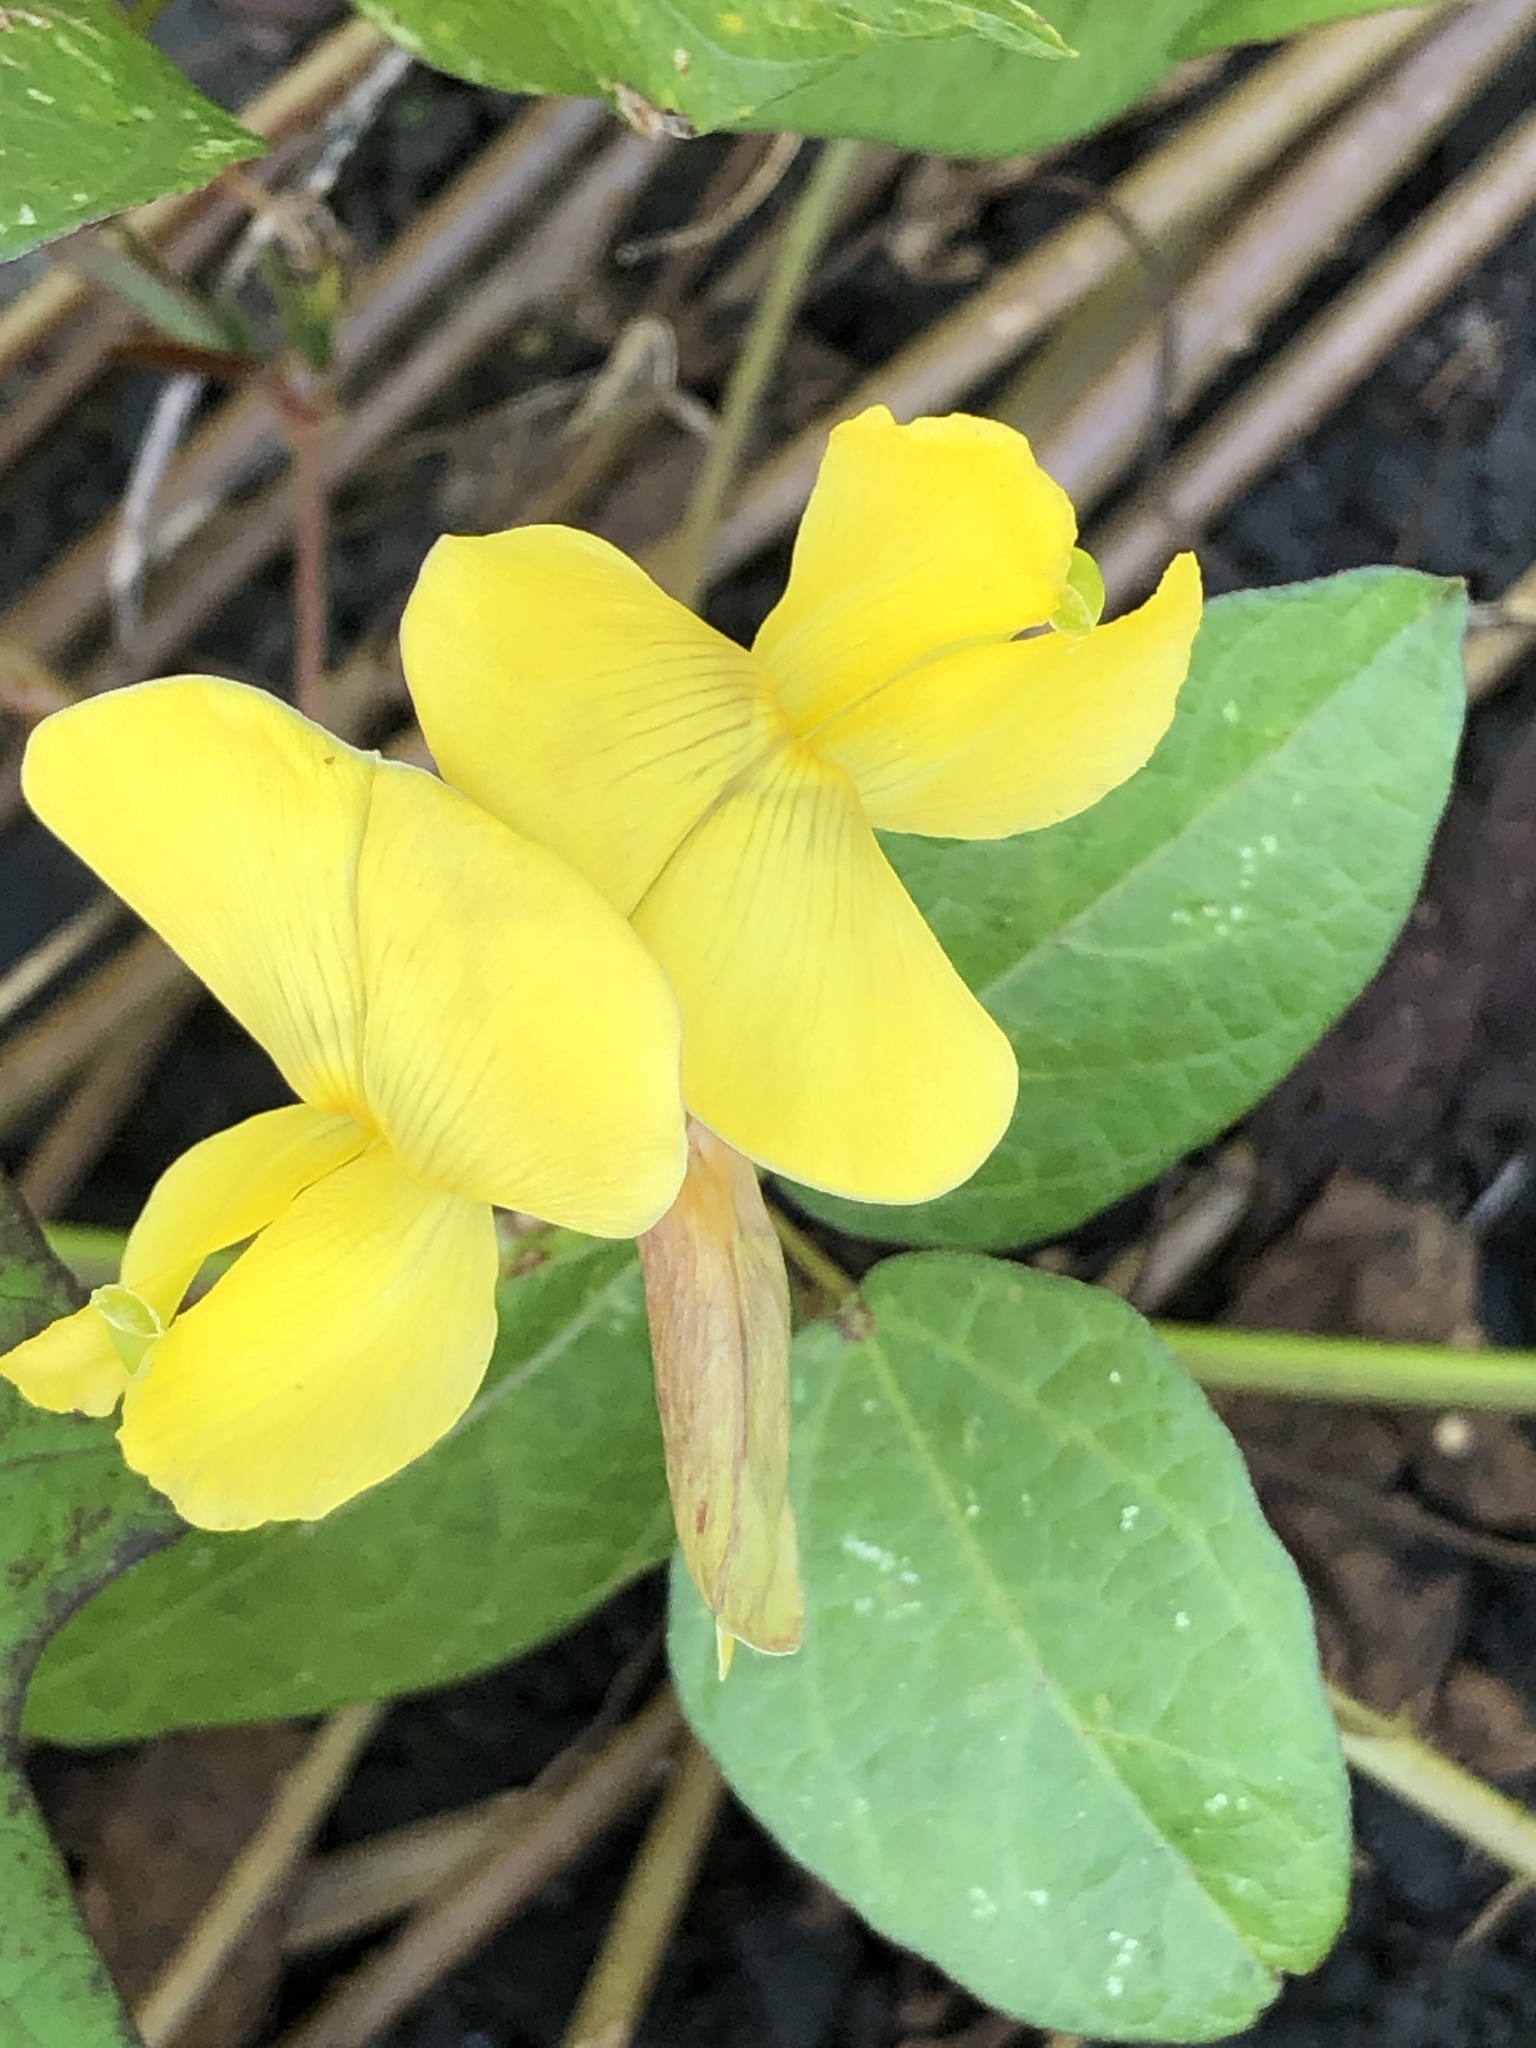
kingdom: Plantae
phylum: Tracheophyta
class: Magnoliopsida
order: Fabales
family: Fabaceae
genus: Vigna
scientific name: Vigna luteola
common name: Hairypod cowpea
